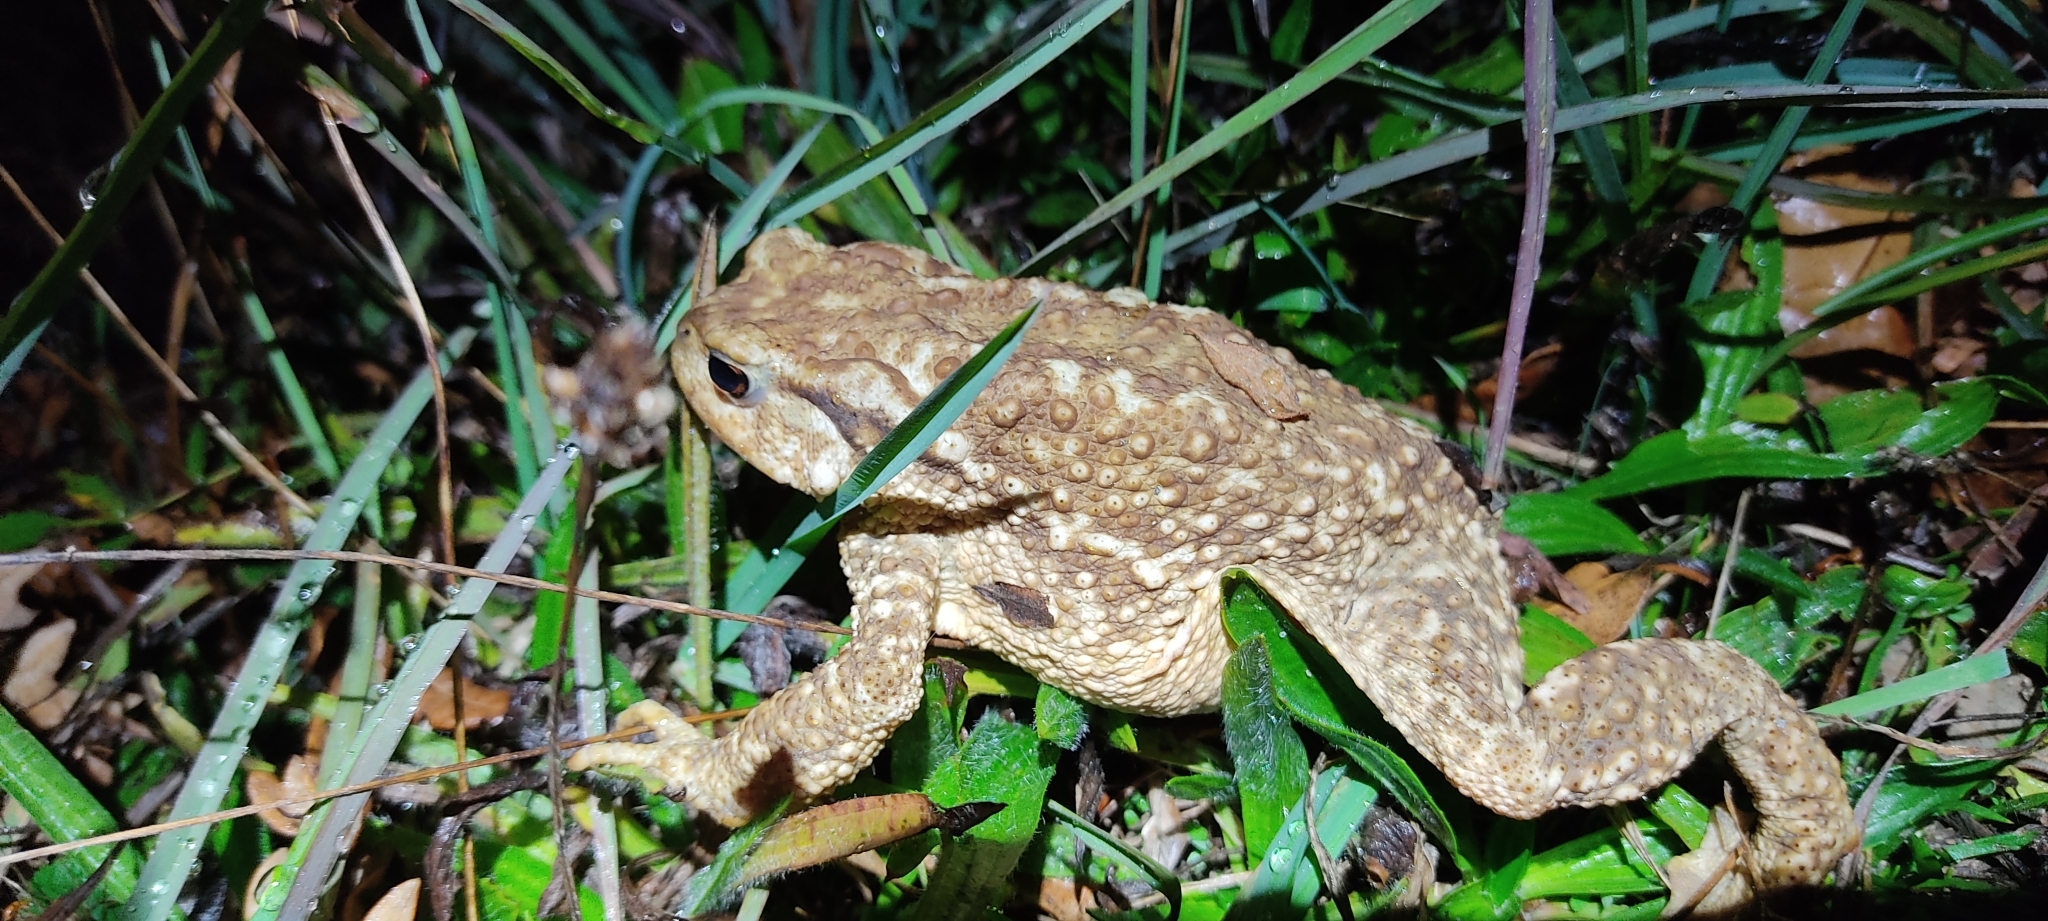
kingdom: Animalia
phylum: Chordata
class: Amphibia
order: Anura
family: Bufonidae
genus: Bufo
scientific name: Bufo spinosus
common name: Western common toad
